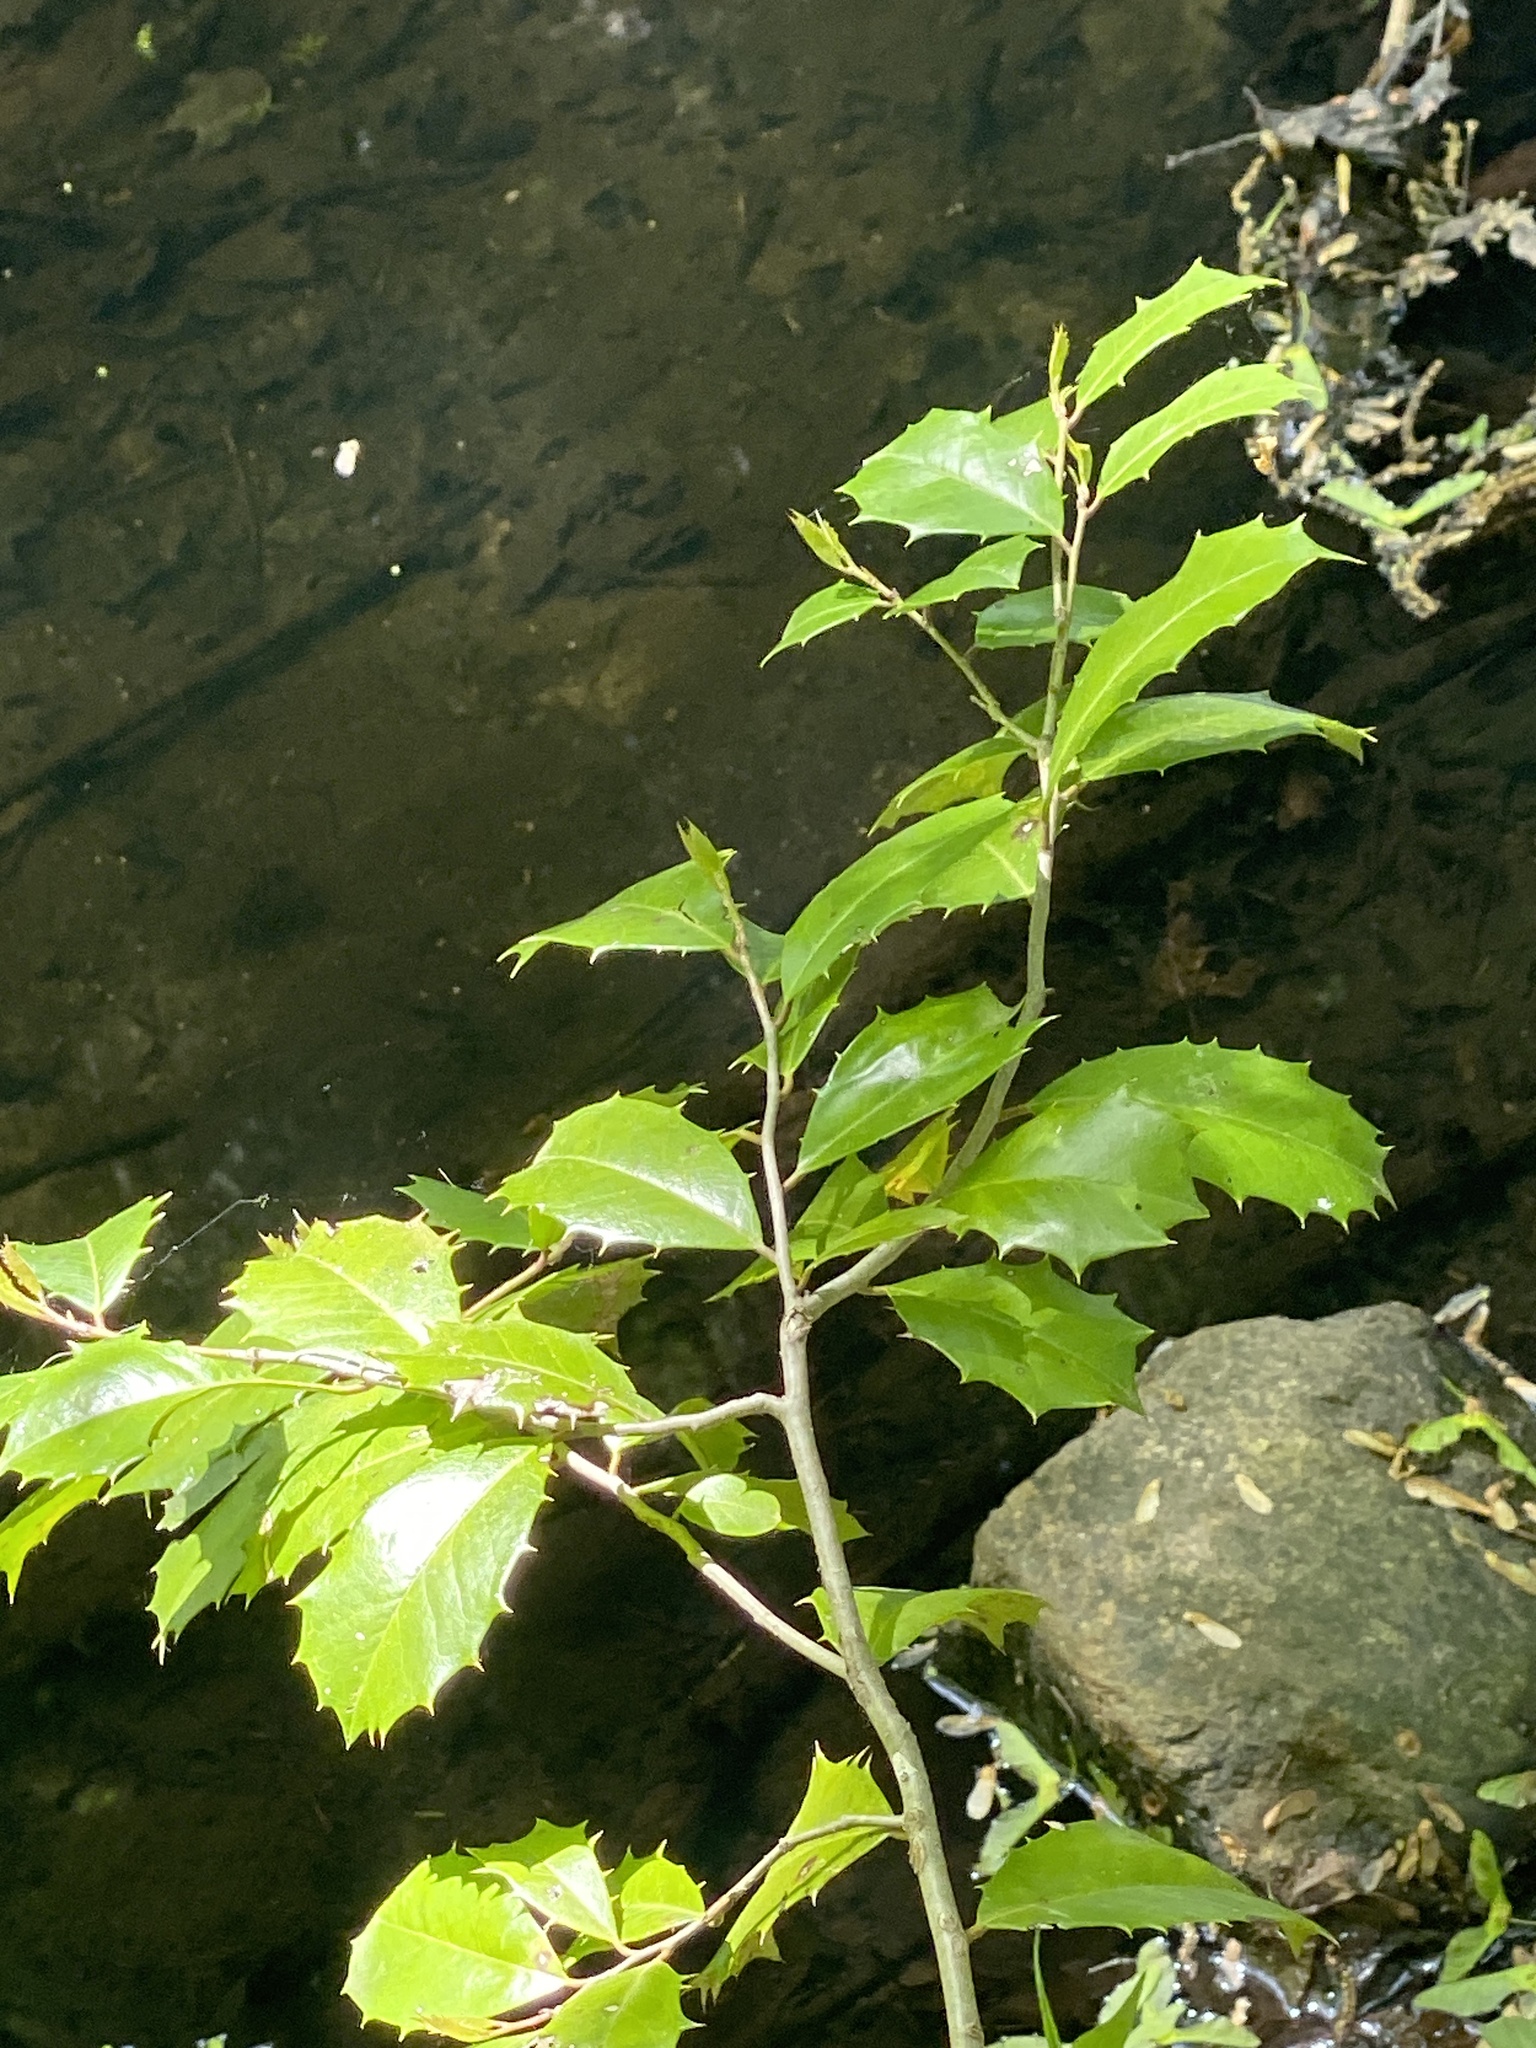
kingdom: Plantae
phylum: Tracheophyta
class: Magnoliopsida
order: Aquifoliales
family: Aquifoliaceae
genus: Ilex
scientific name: Ilex opaca
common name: American holly
